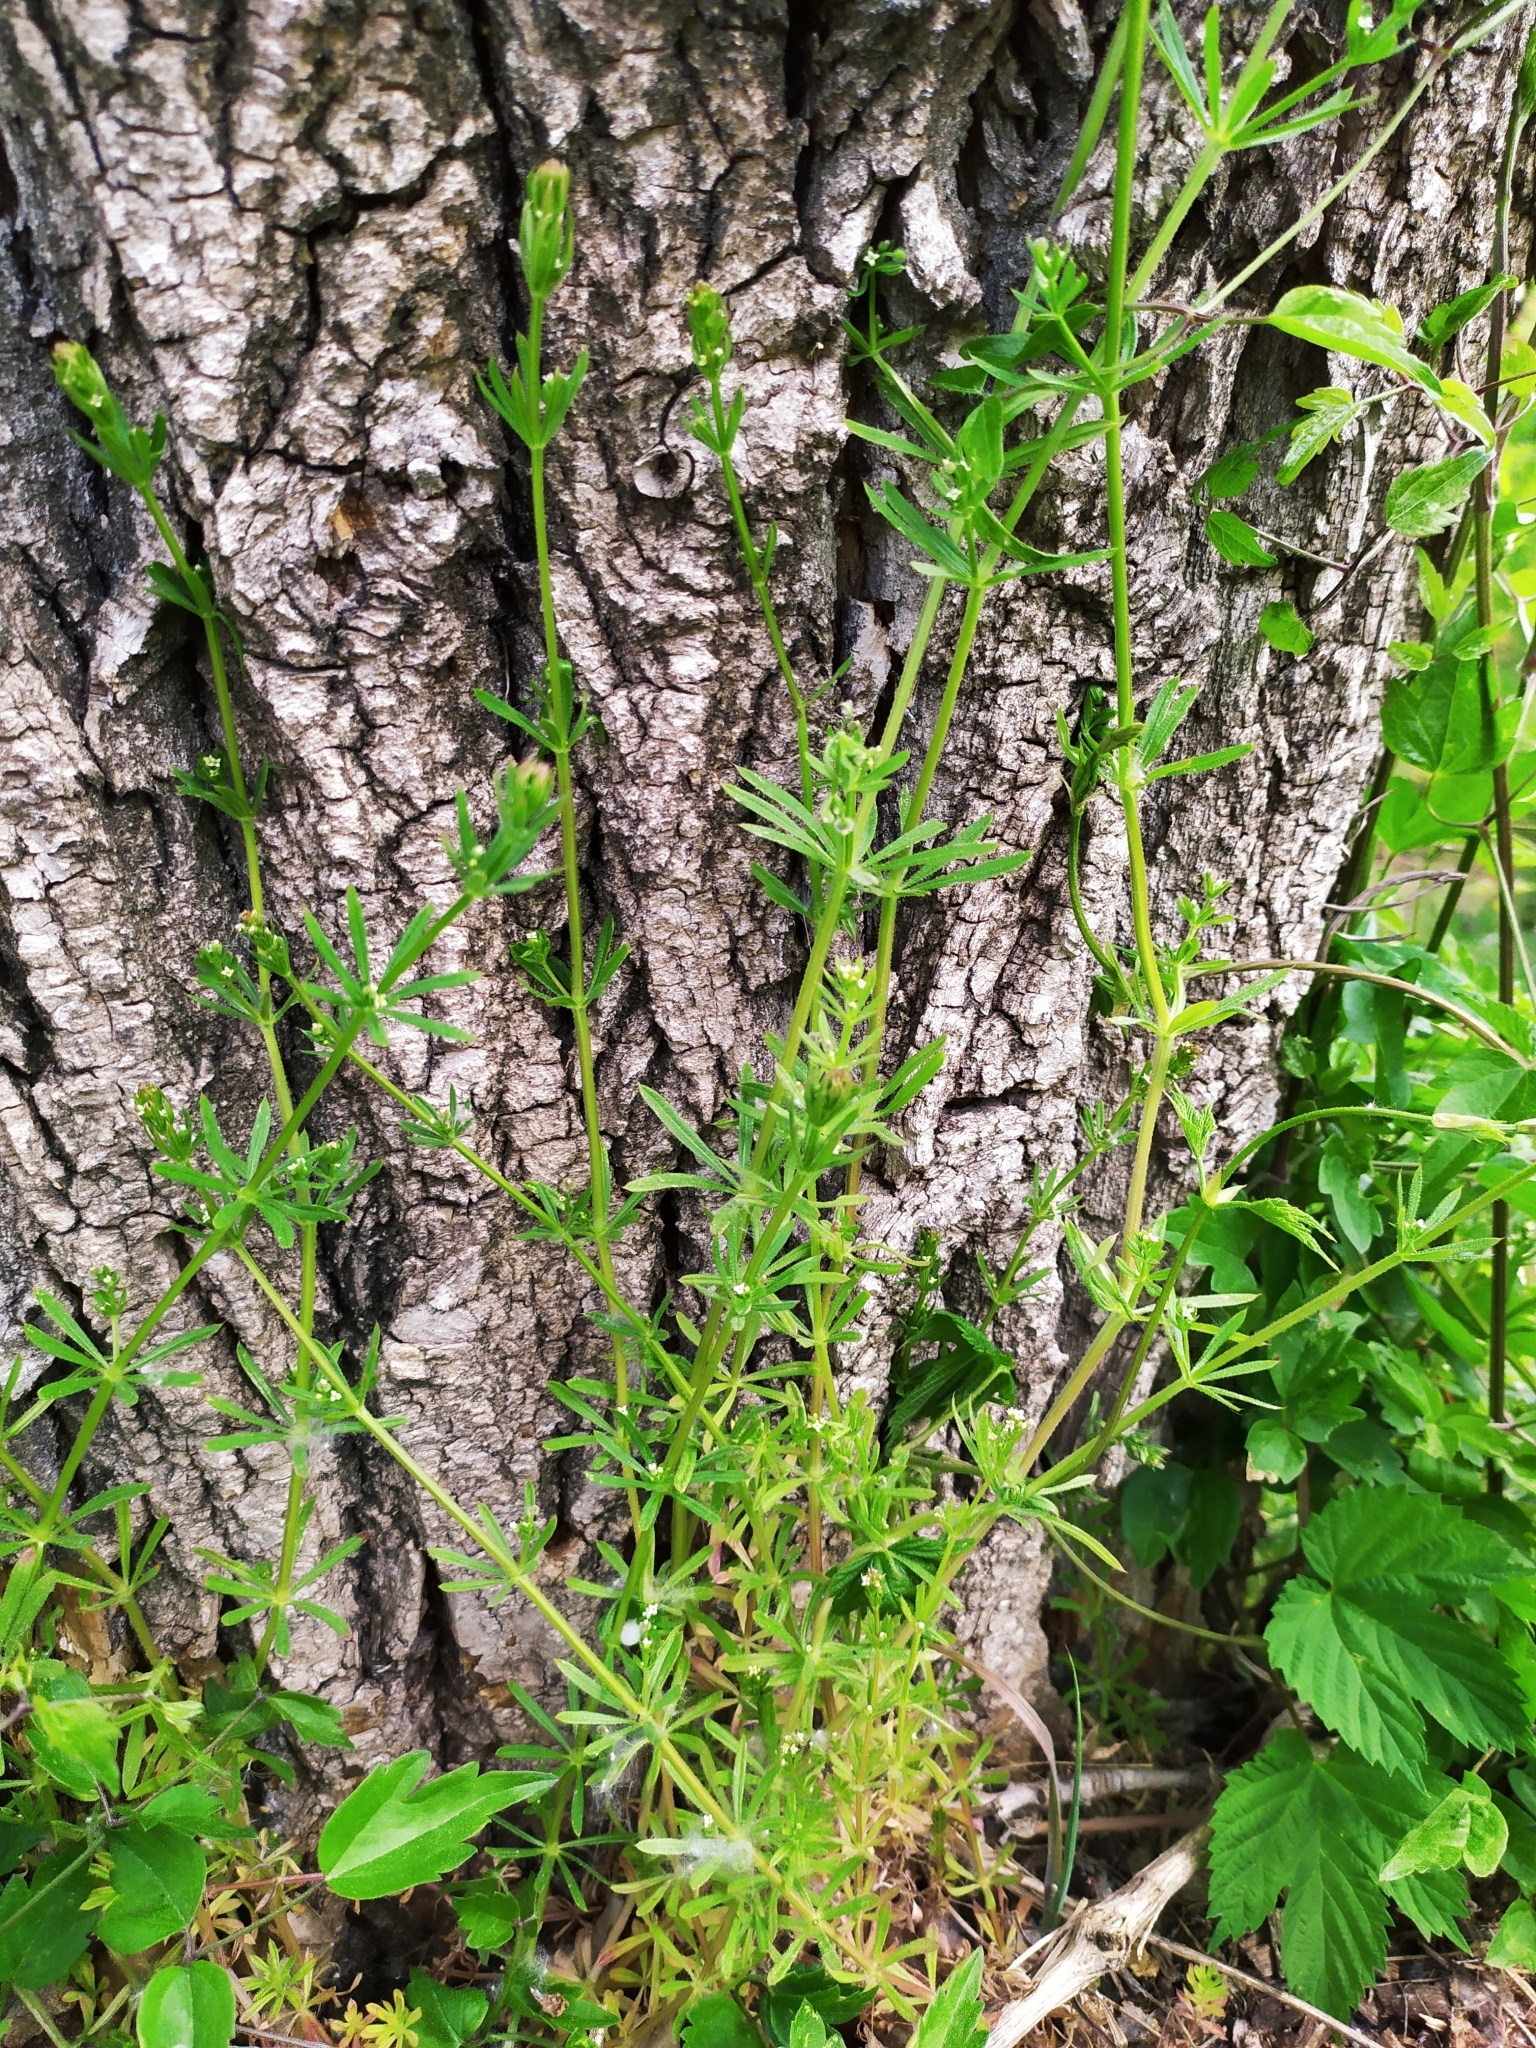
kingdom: Plantae
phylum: Tracheophyta
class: Magnoliopsida
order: Gentianales
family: Rubiaceae
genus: Galium
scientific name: Galium aparine
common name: Cleavers
